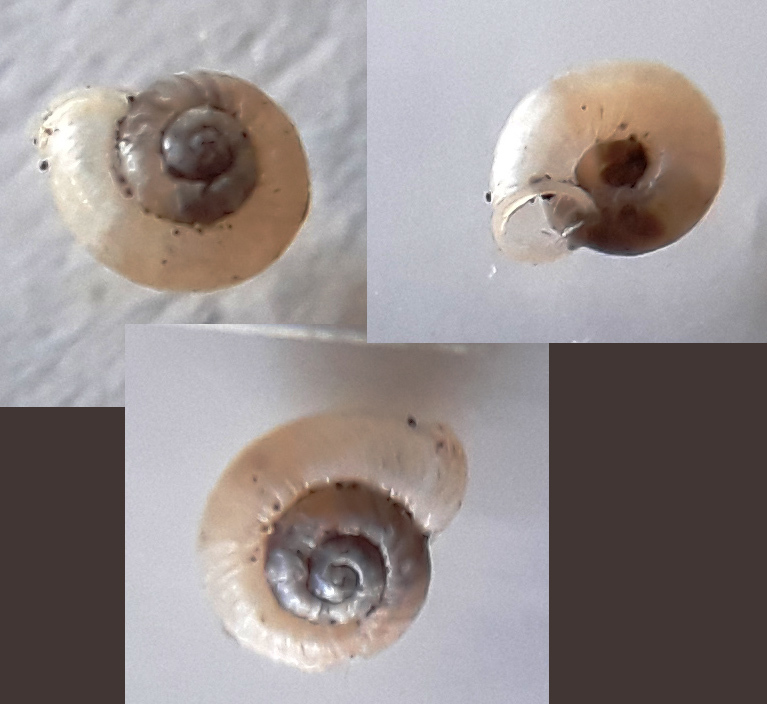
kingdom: Animalia
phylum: Mollusca
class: Gastropoda
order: Stylommatophora
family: Valloniidae
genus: Vallonia
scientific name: Vallonia pulchella
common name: Smooth grass snail
